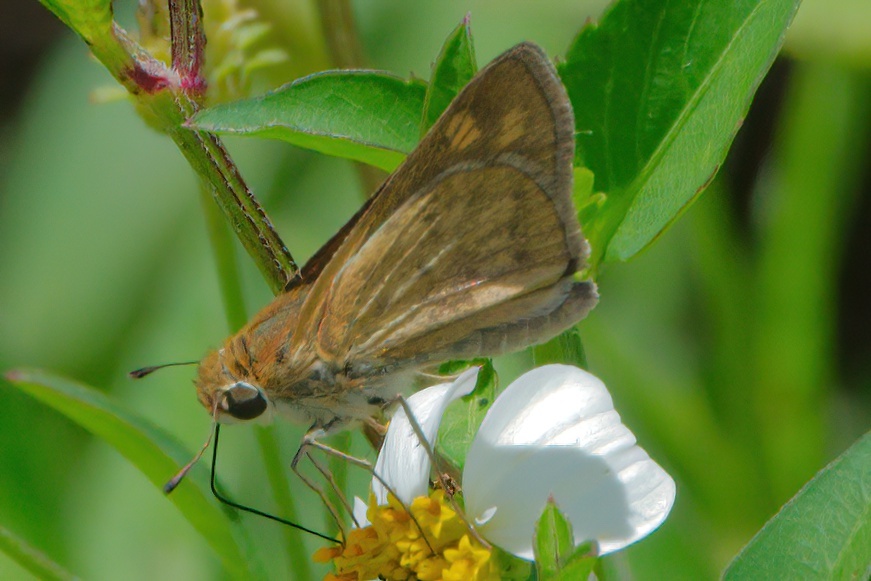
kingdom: Animalia
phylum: Arthropoda
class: Insecta
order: Lepidoptera
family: Hesperiidae
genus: Hylephila
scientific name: Hylephila phyleus
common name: Fiery skipper
